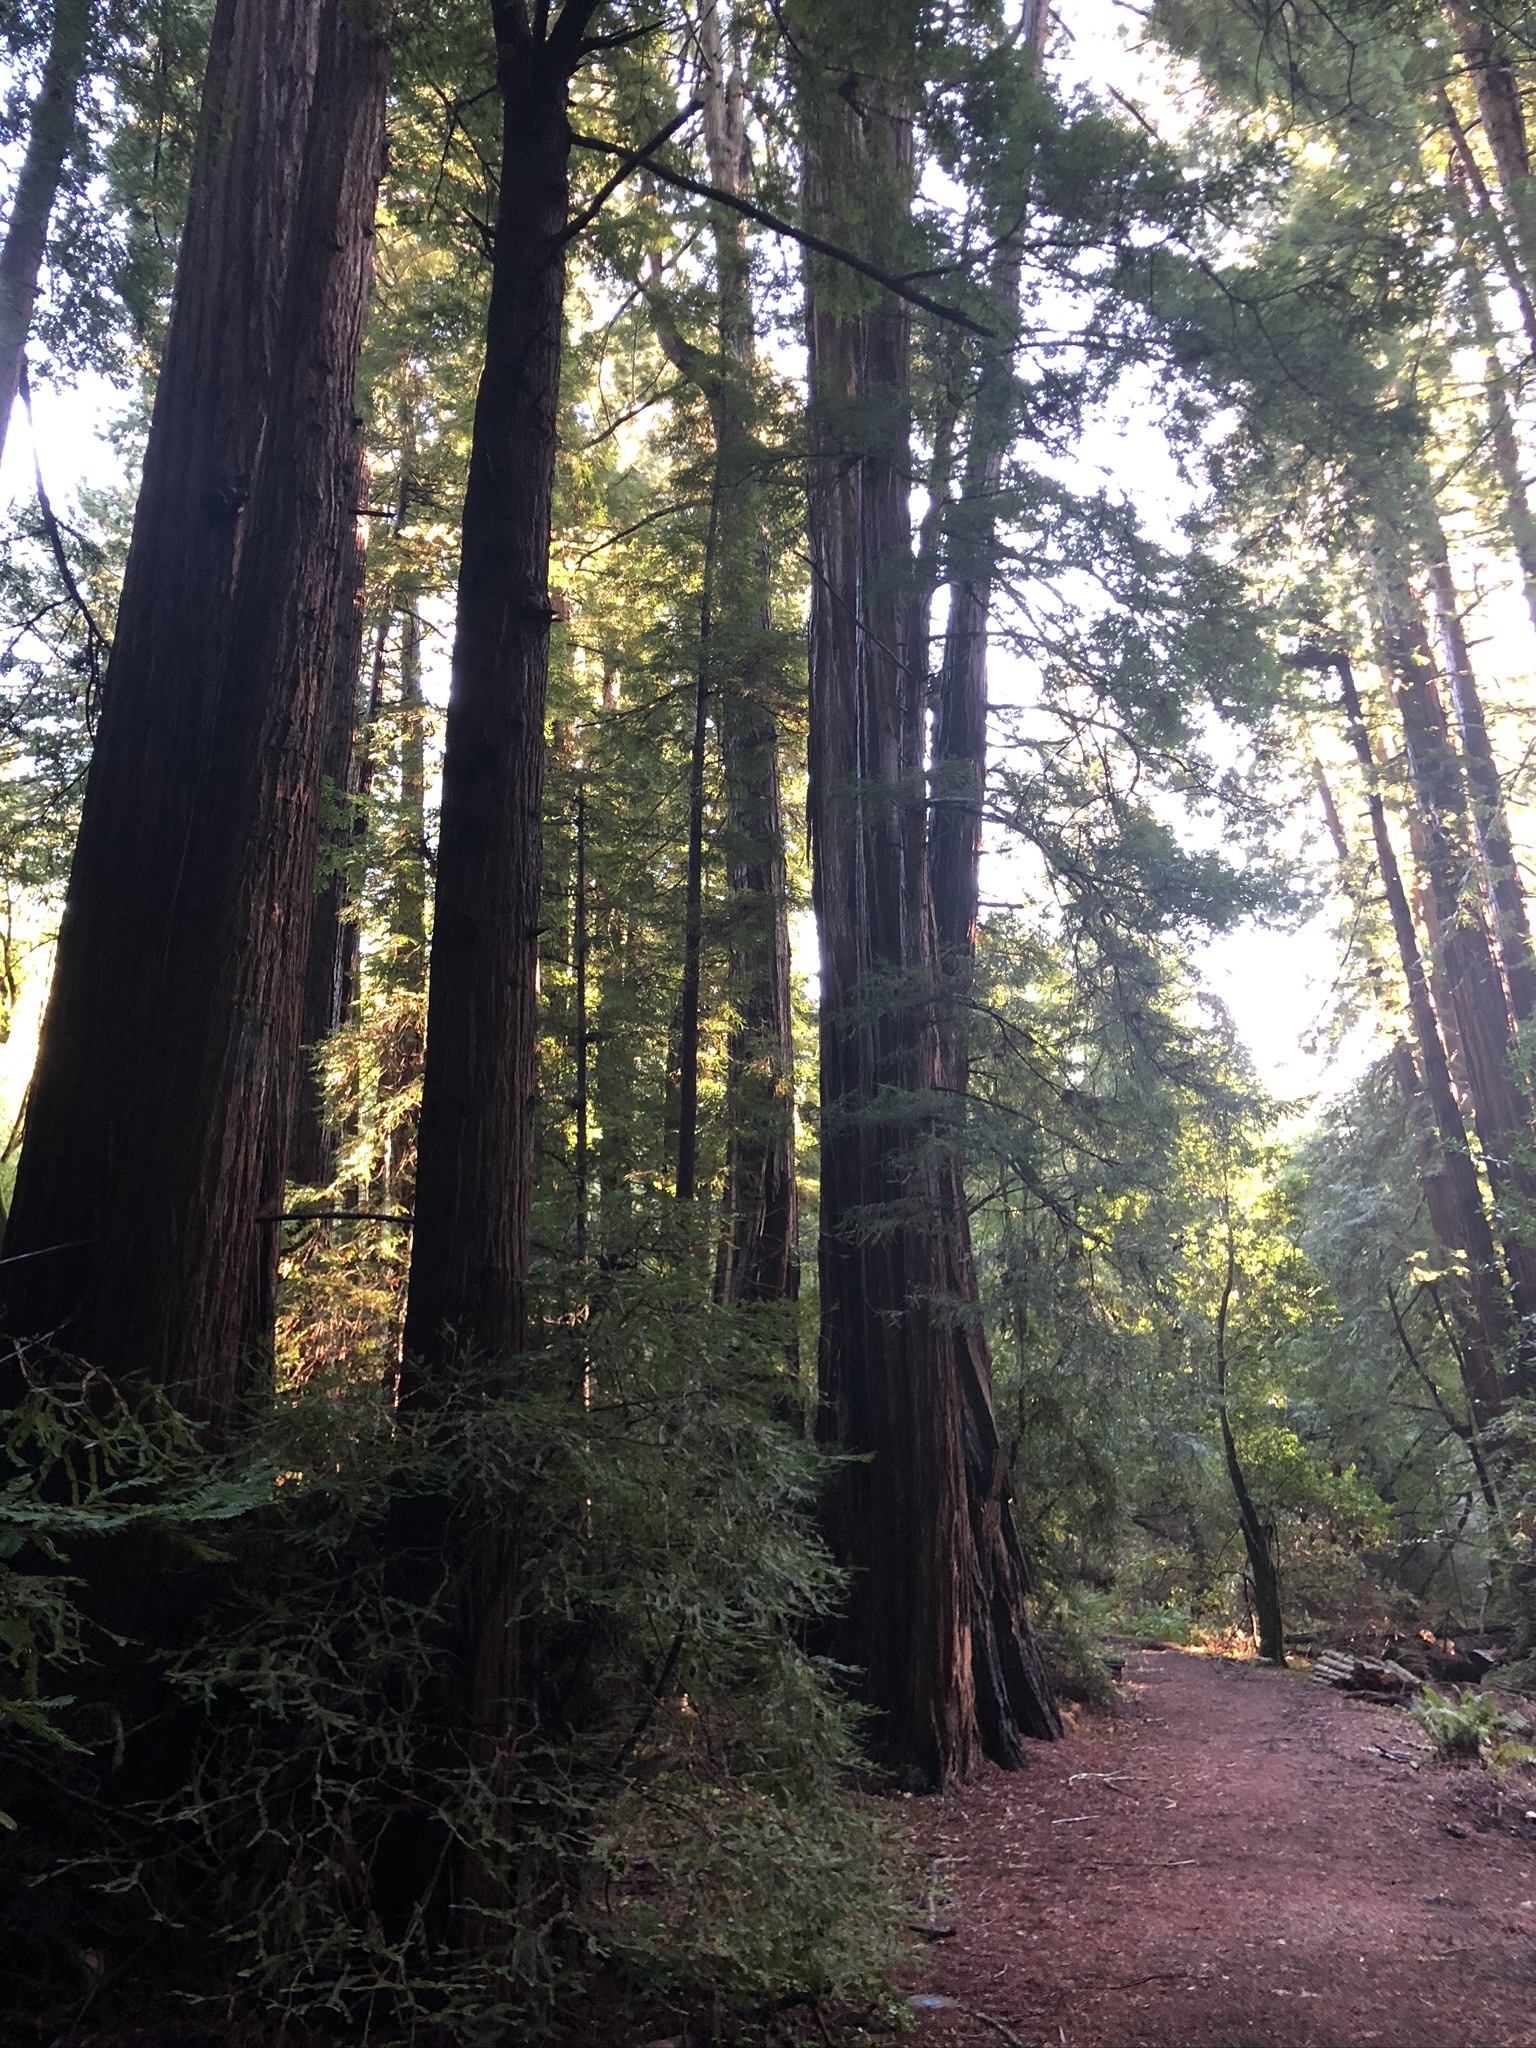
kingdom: Plantae
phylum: Tracheophyta
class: Pinopsida
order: Pinales
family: Cupressaceae
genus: Sequoia
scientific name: Sequoia sempervirens
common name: Coast redwood
